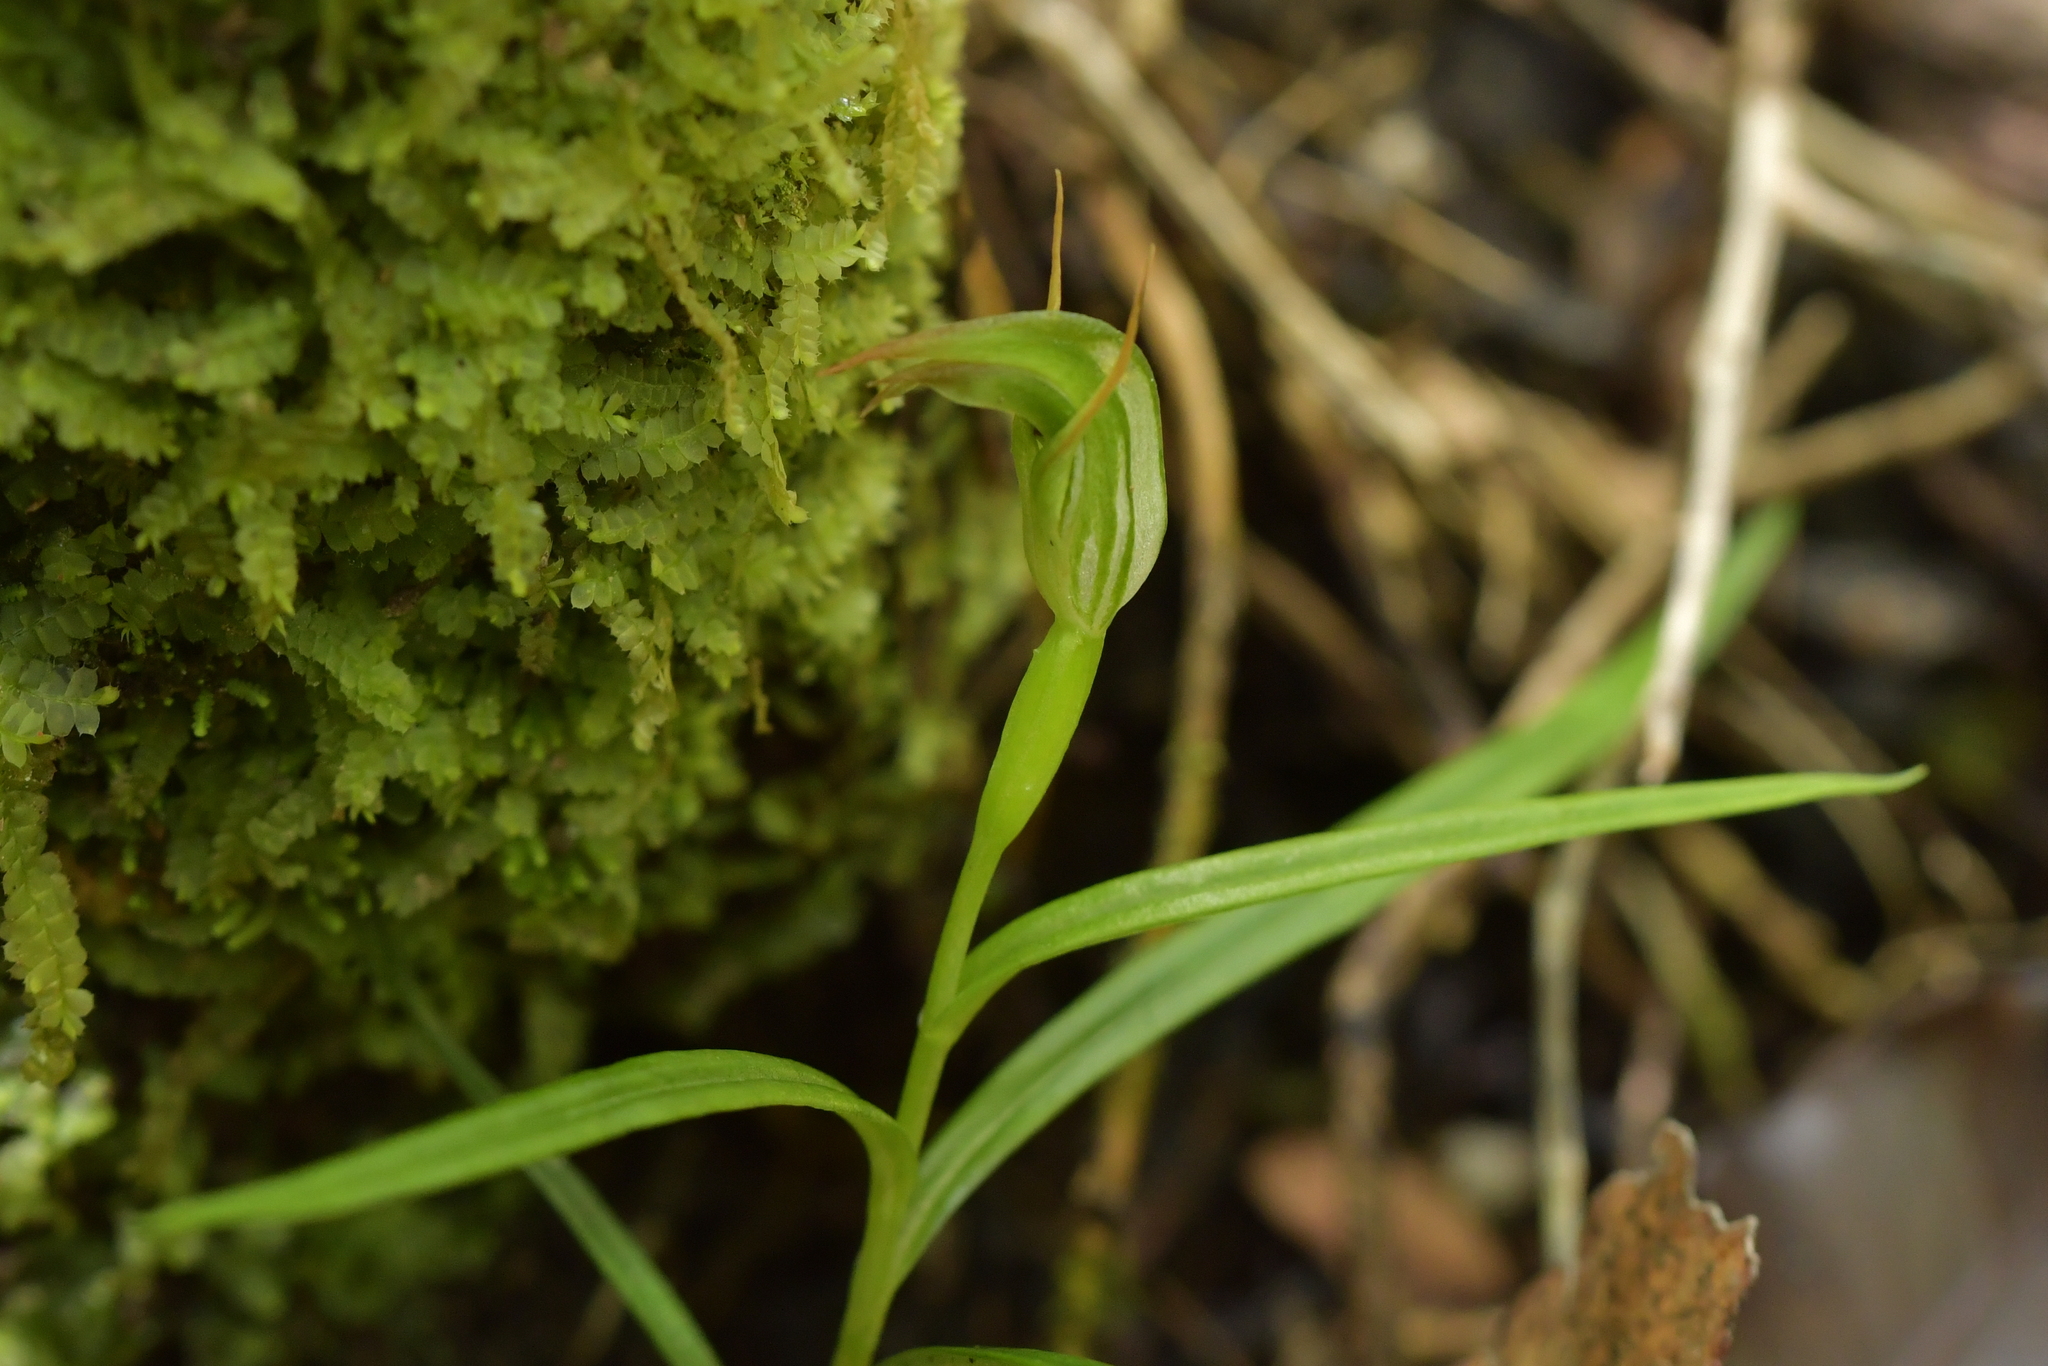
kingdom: Plantae
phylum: Tracheophyta
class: Liliopsida
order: Asparagales
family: Orchidaceae
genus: Pterostylis
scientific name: Pterostylis graminea
